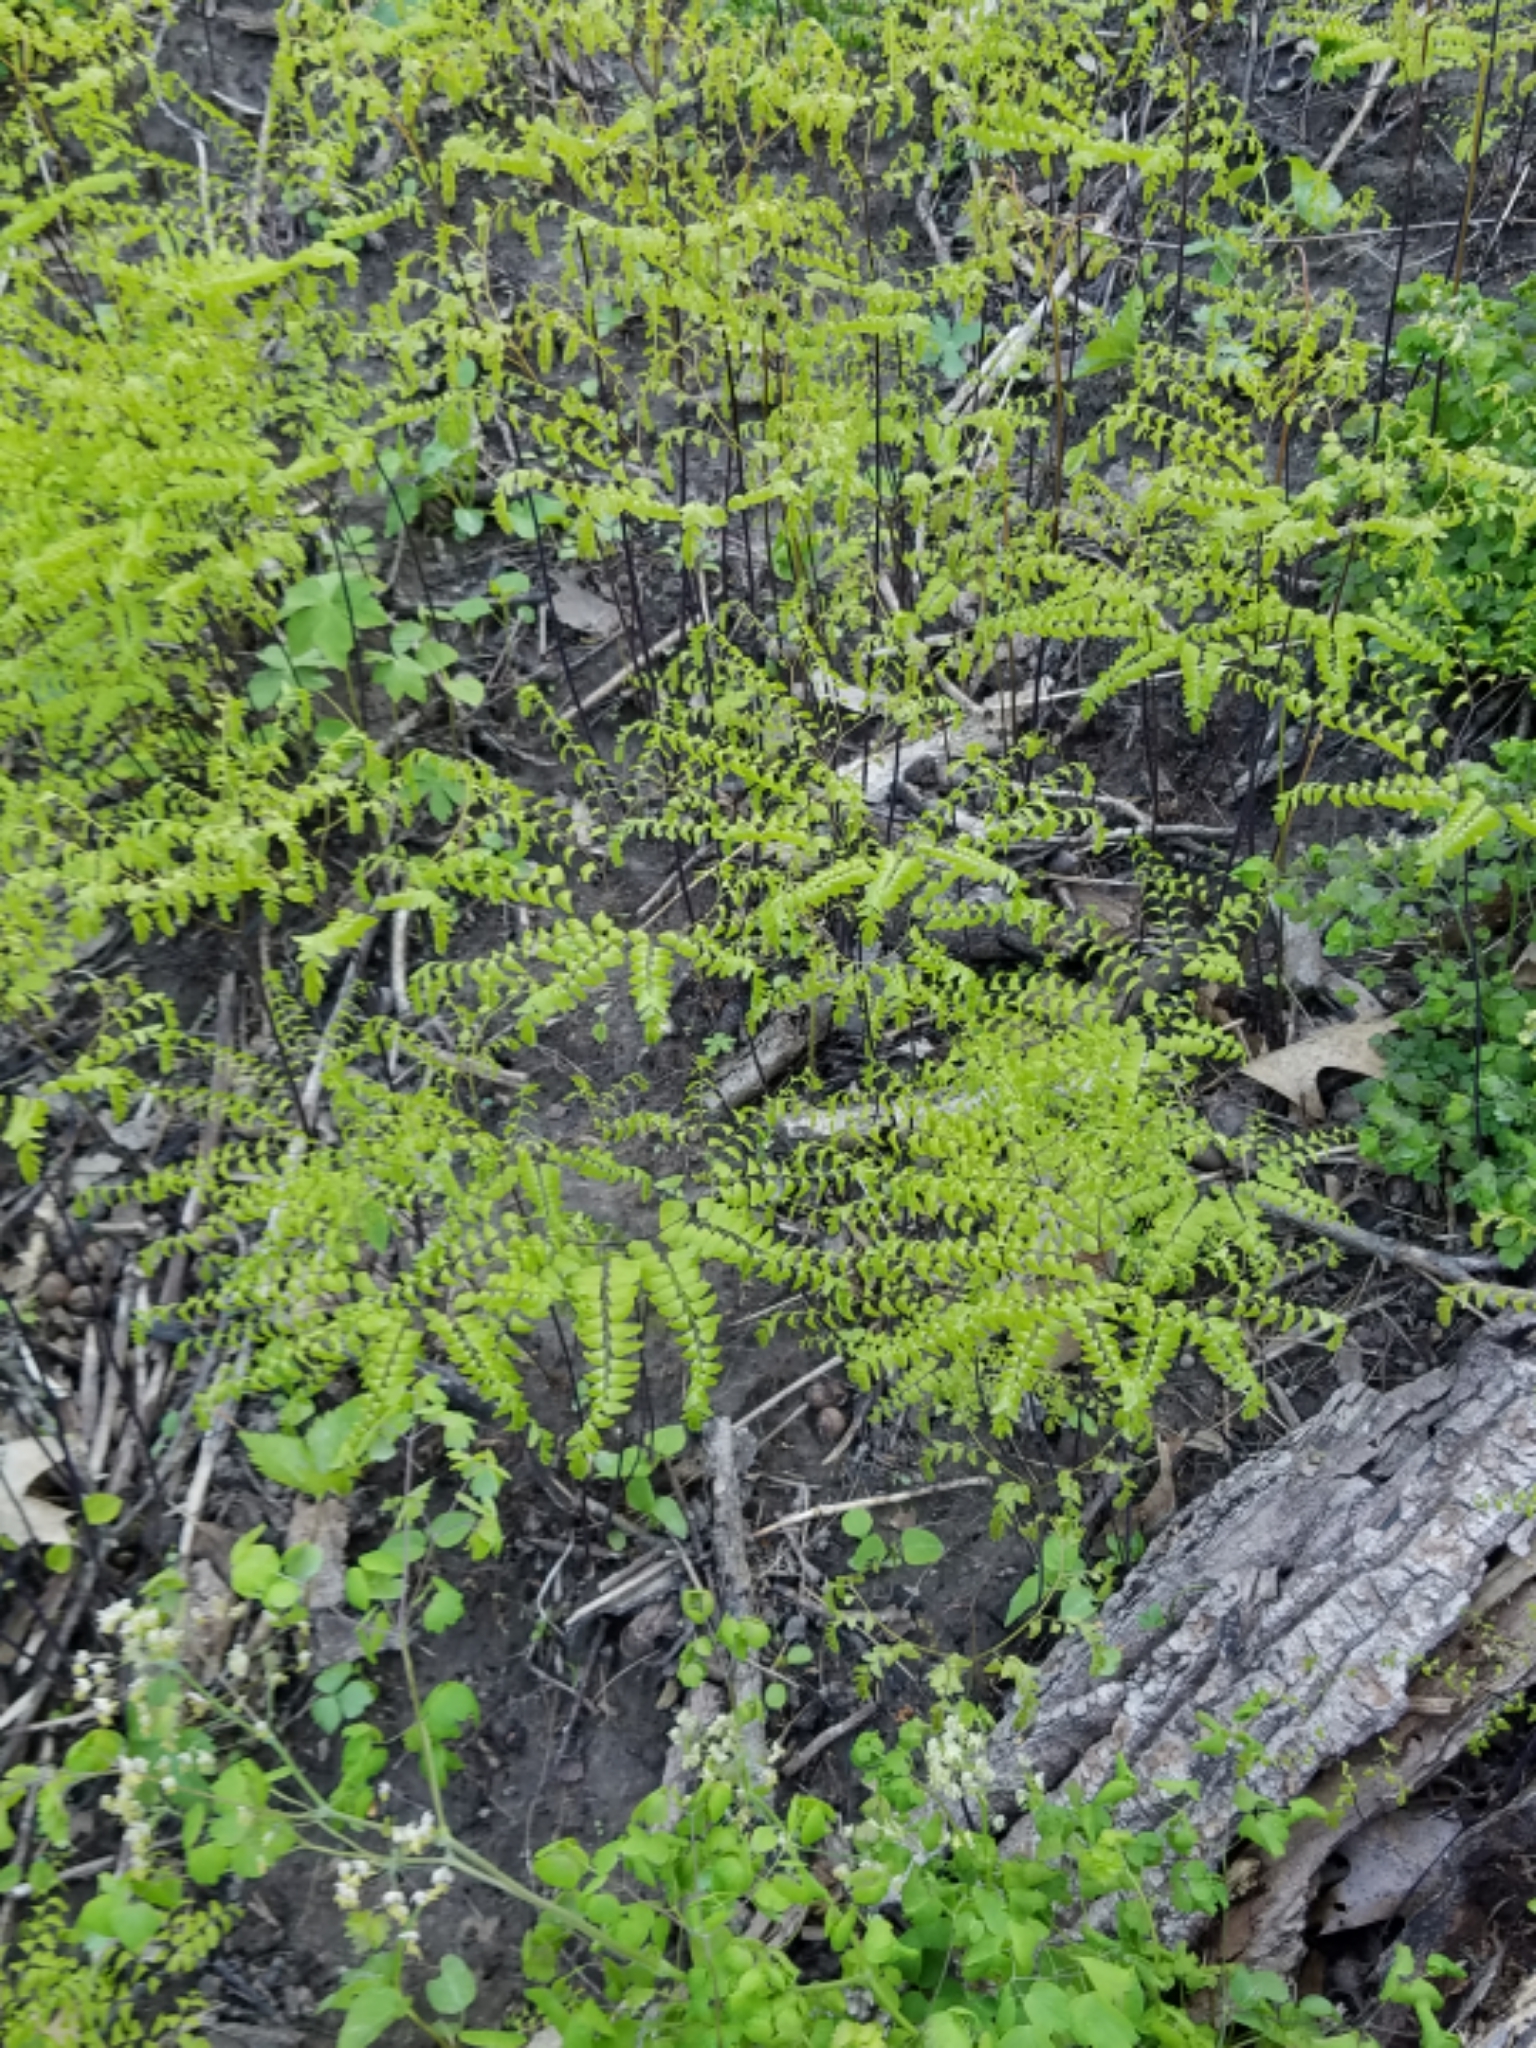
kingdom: Plantae
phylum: Tracheophyta
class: Polypodiopsida
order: Polypodiales
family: Pteridaceae
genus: Adiantum
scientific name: Adiantum pedatum
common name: Five-finger fern
